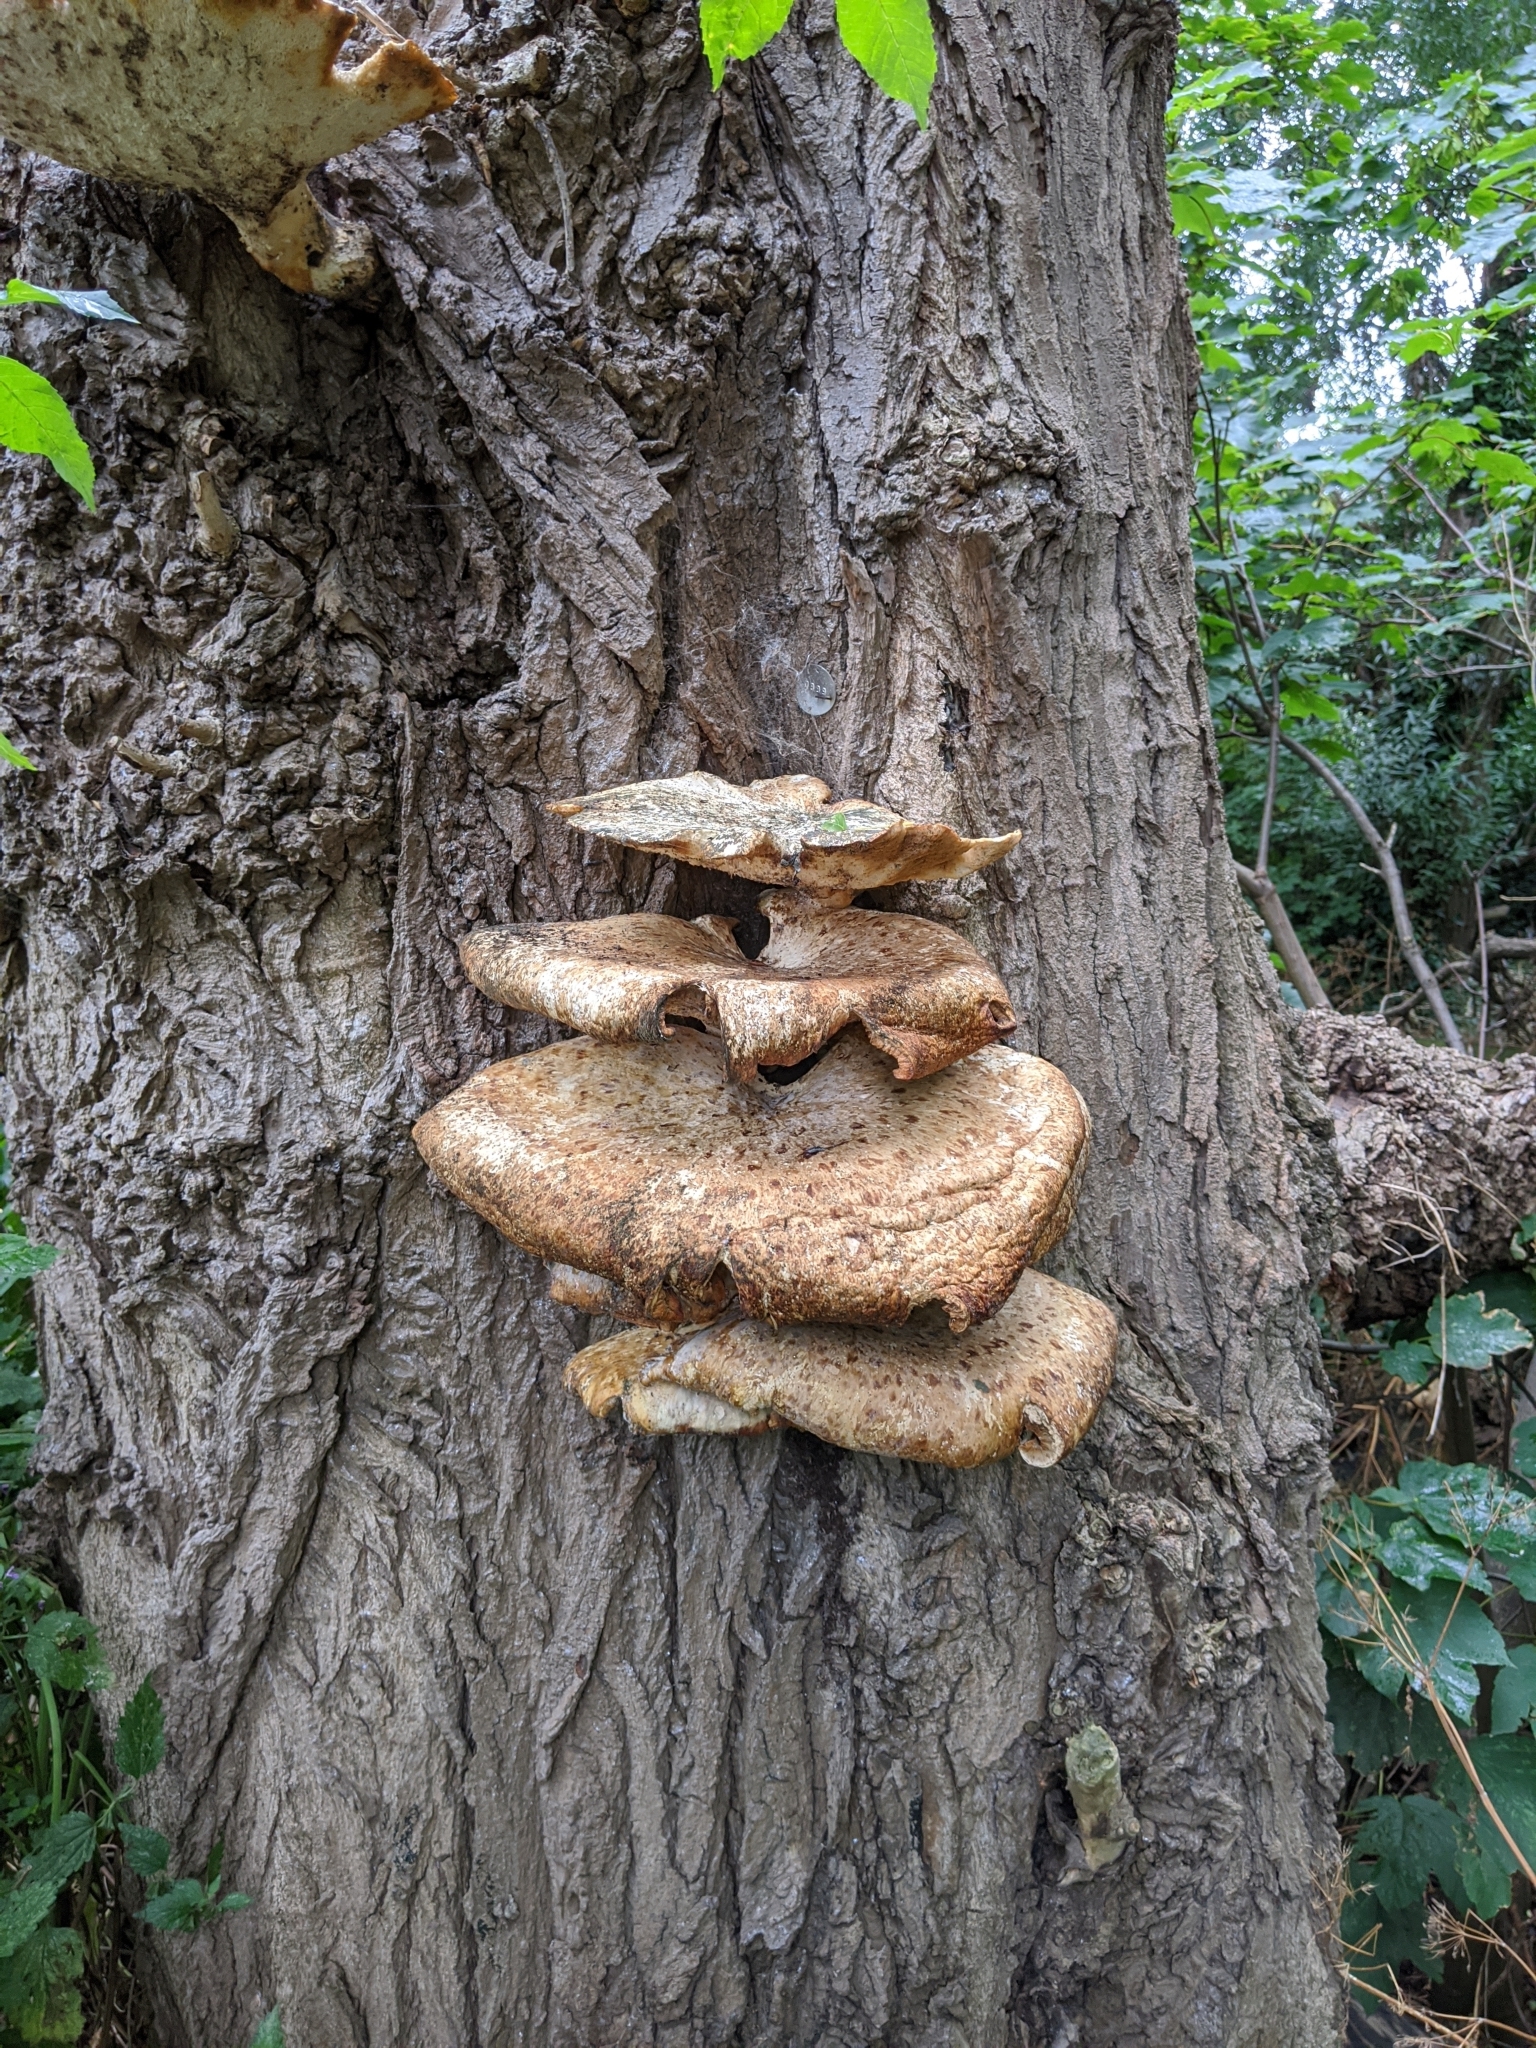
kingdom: Fungi
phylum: Basidiomycota
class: Agaricomycetes
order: Polyporales
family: Polyporaceae
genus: Cerioporus
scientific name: Cerioporus squamosus
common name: Dryad's saddle
